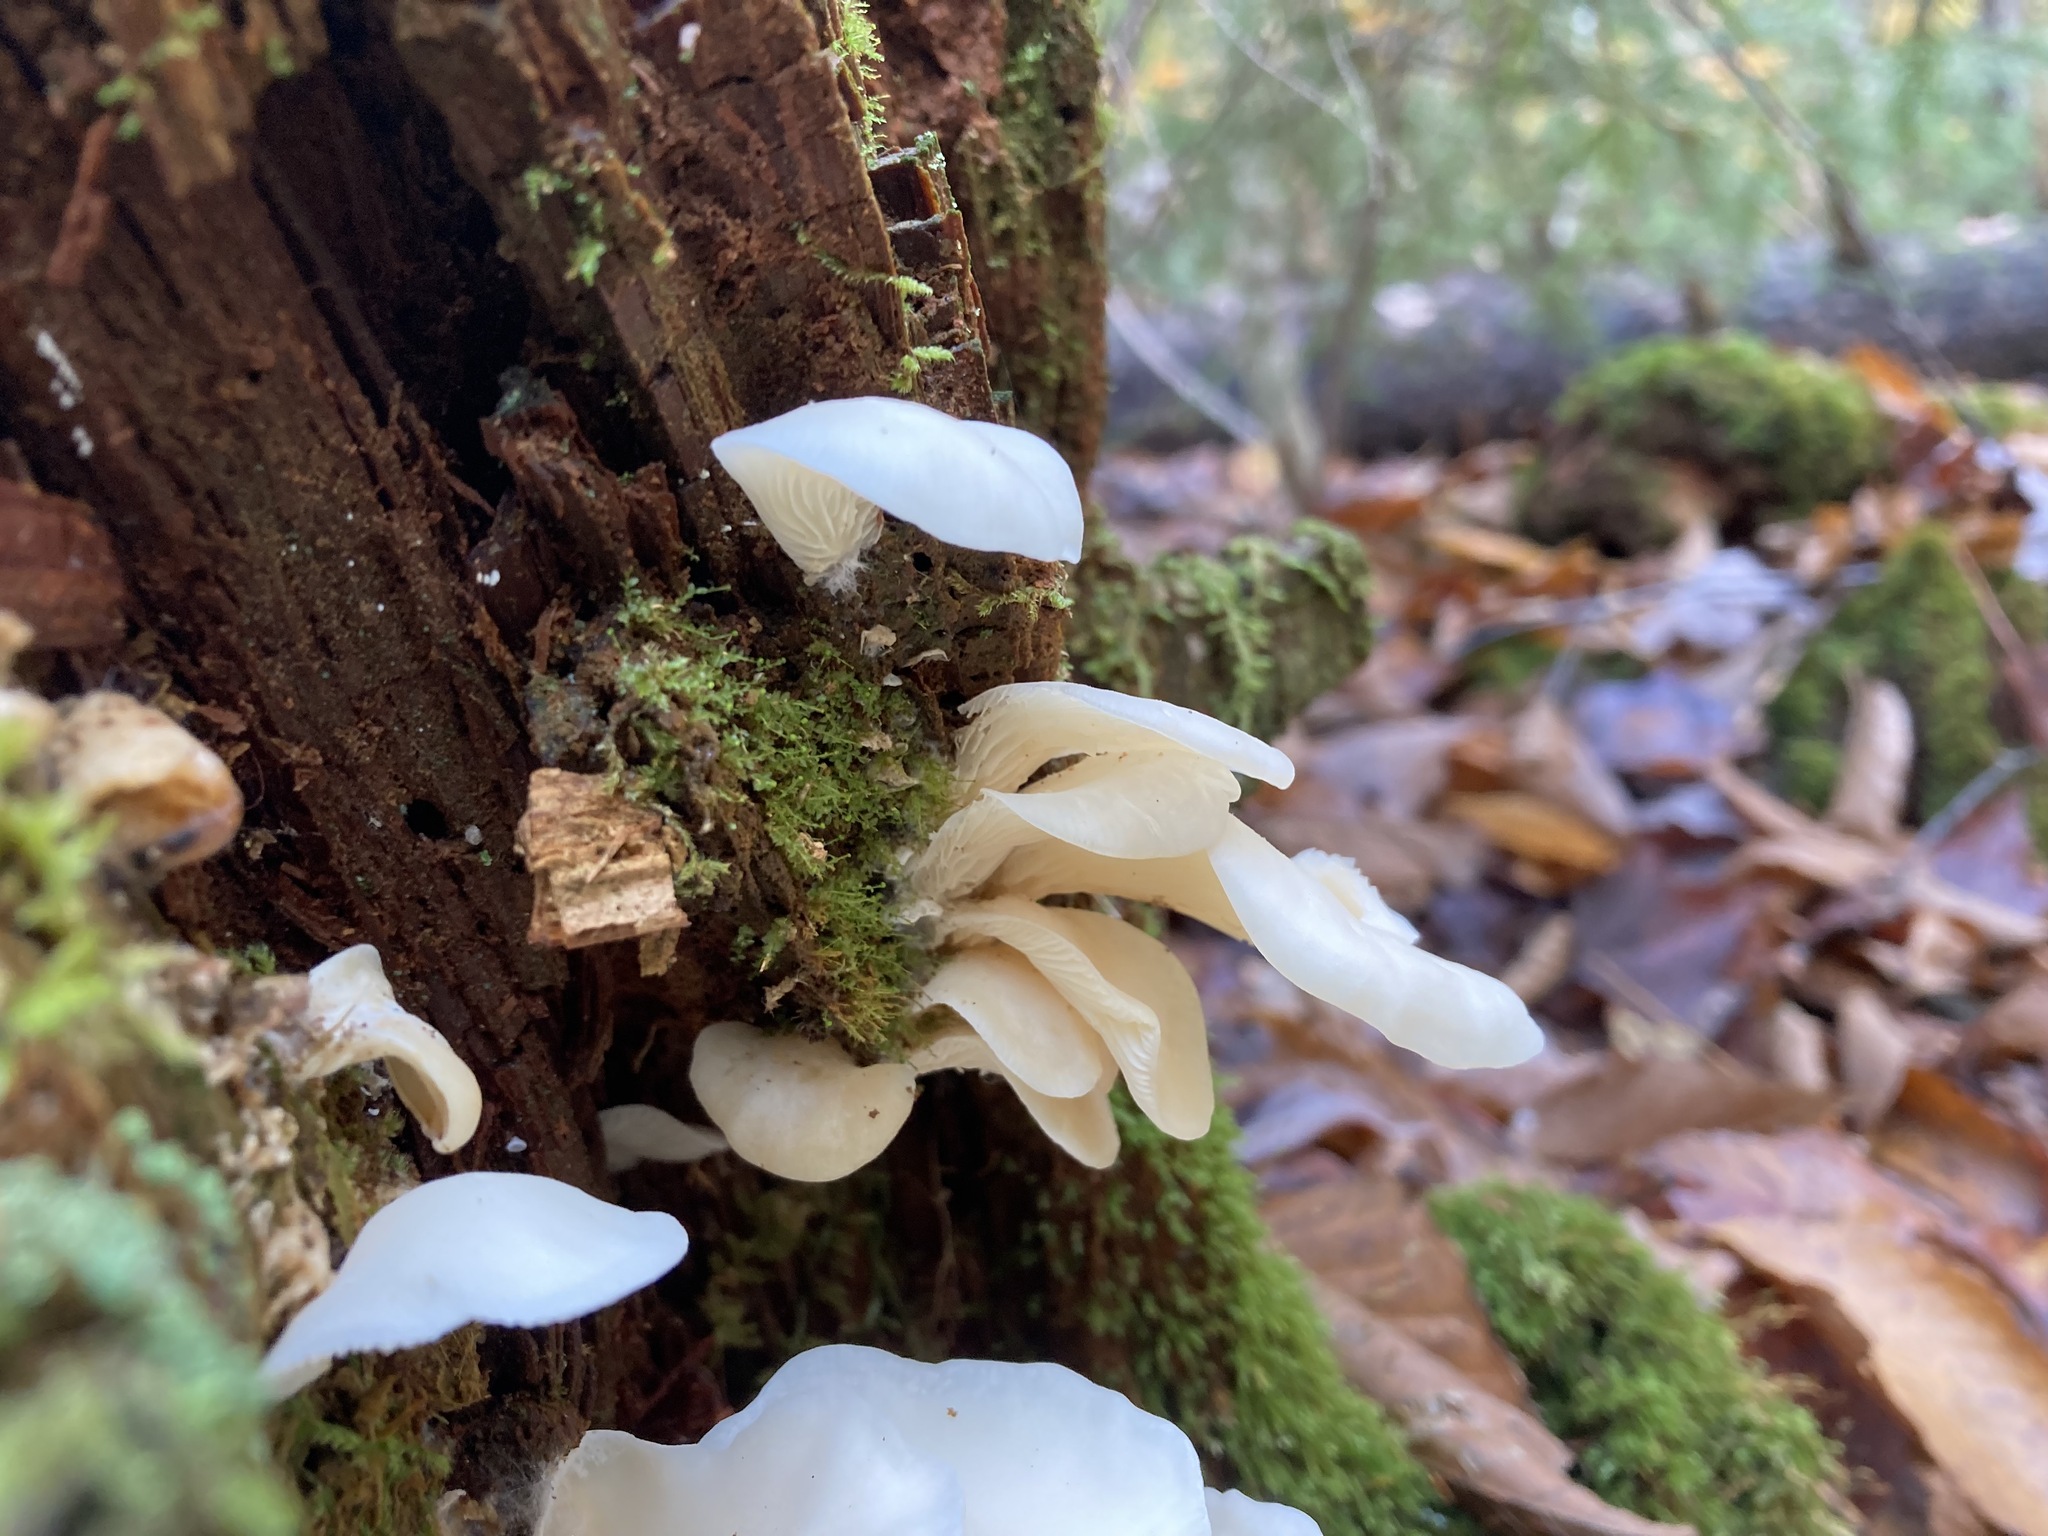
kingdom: Fungi
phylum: Basidiomycota
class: Agaricomycetes
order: Agaricales
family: Marasmiaceae
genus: Pleurocybella
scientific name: Pleurocybella porrigens
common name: Angel's wings
